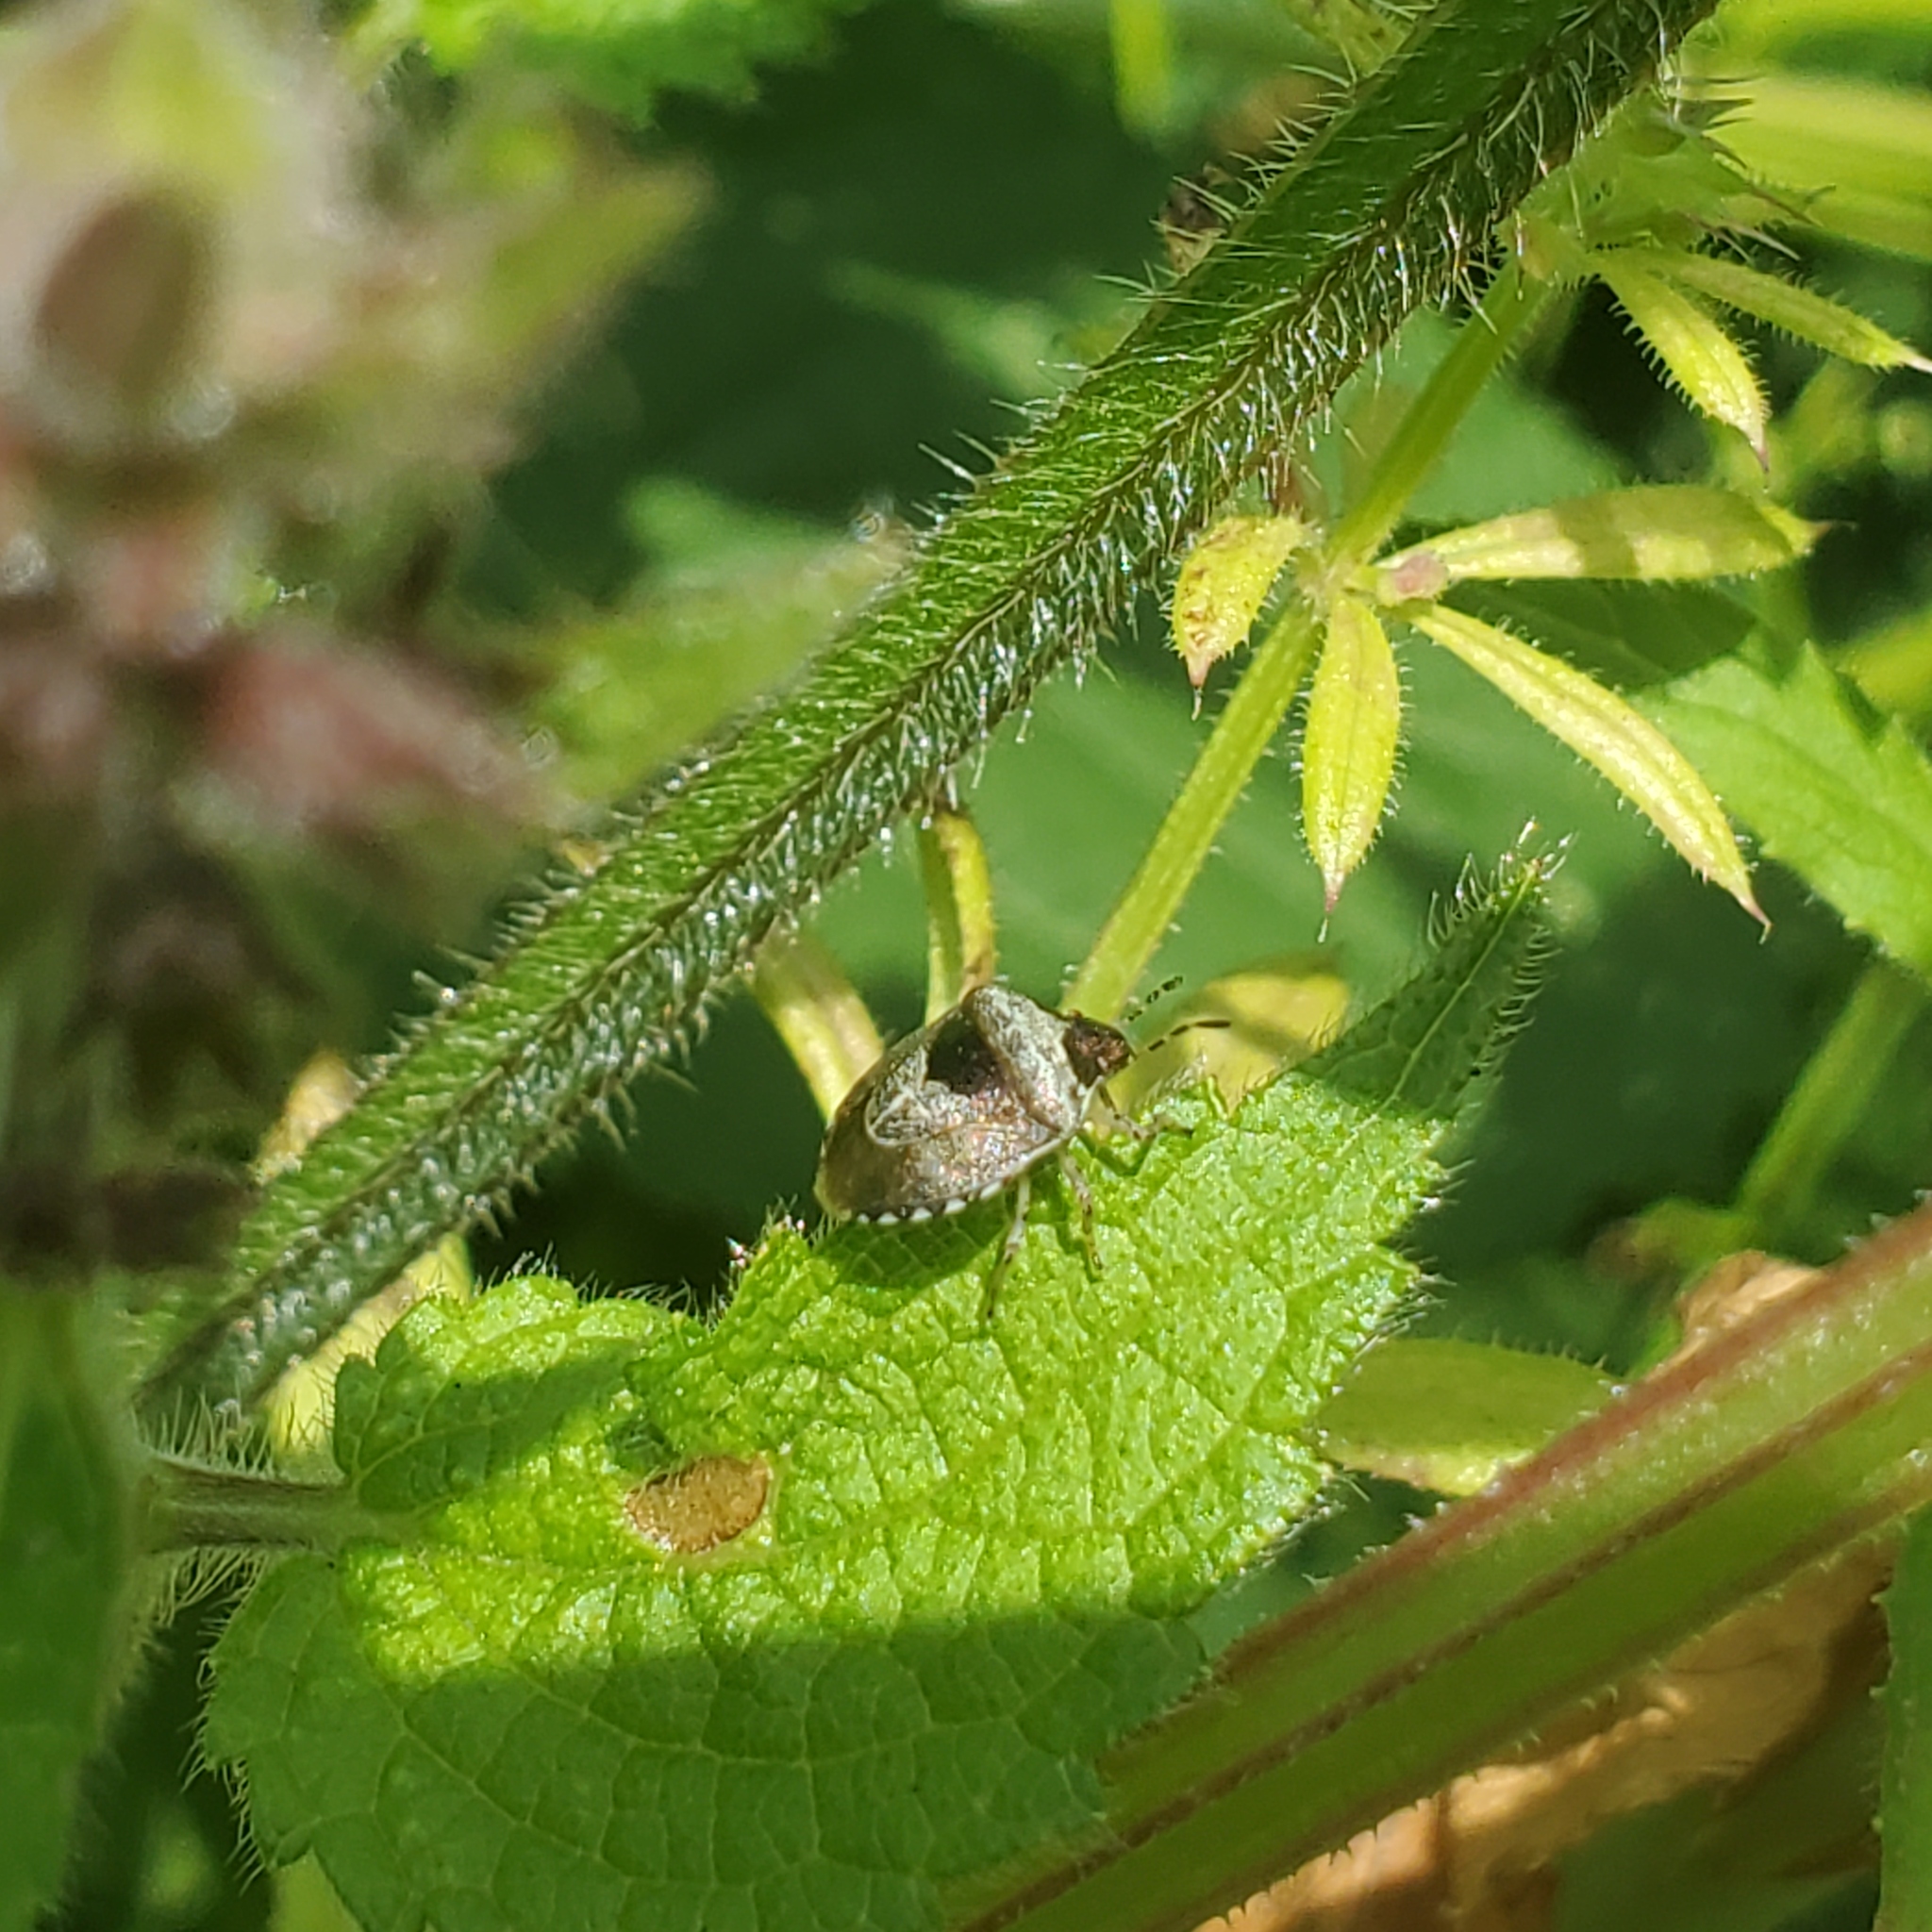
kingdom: Animalia
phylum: Arthropoda
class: Insecta
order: Hemiptera
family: Pentatomidae
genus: Eysarcoris
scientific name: Eysarcoris venustissimus
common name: Woundwort shieldbug
